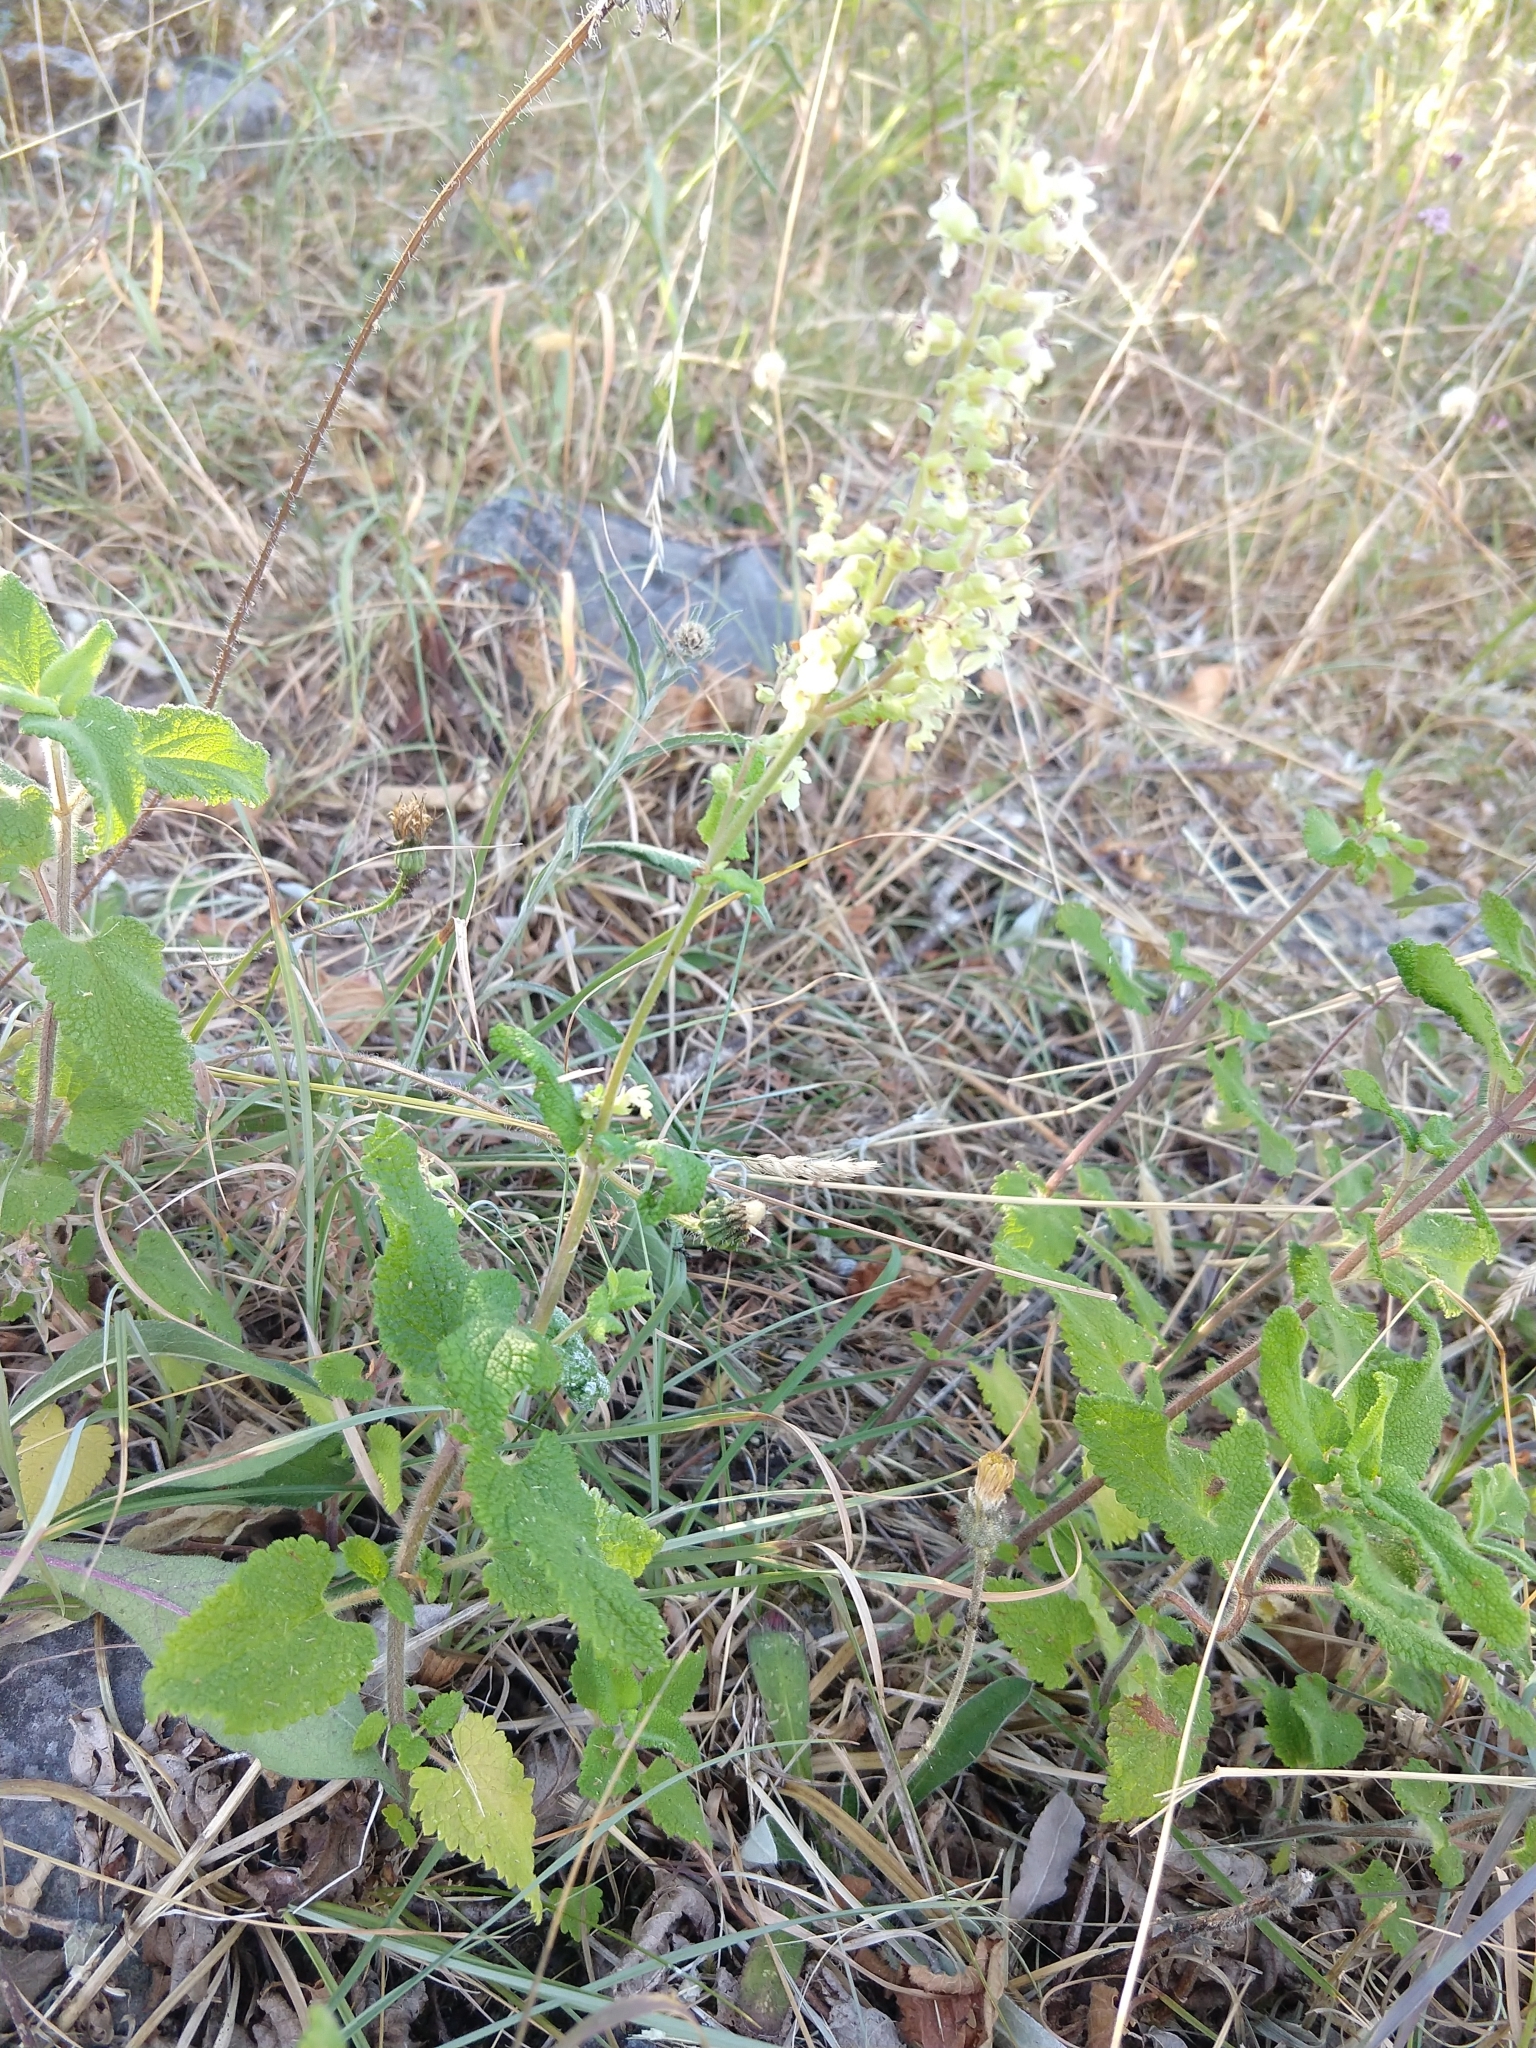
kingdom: Plantae
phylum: Tracheophyta
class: Magnoliopsida
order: Lamiales
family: Lamiaceae
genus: Teucrium
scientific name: Teucrium scorodonia
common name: Woodland germander
